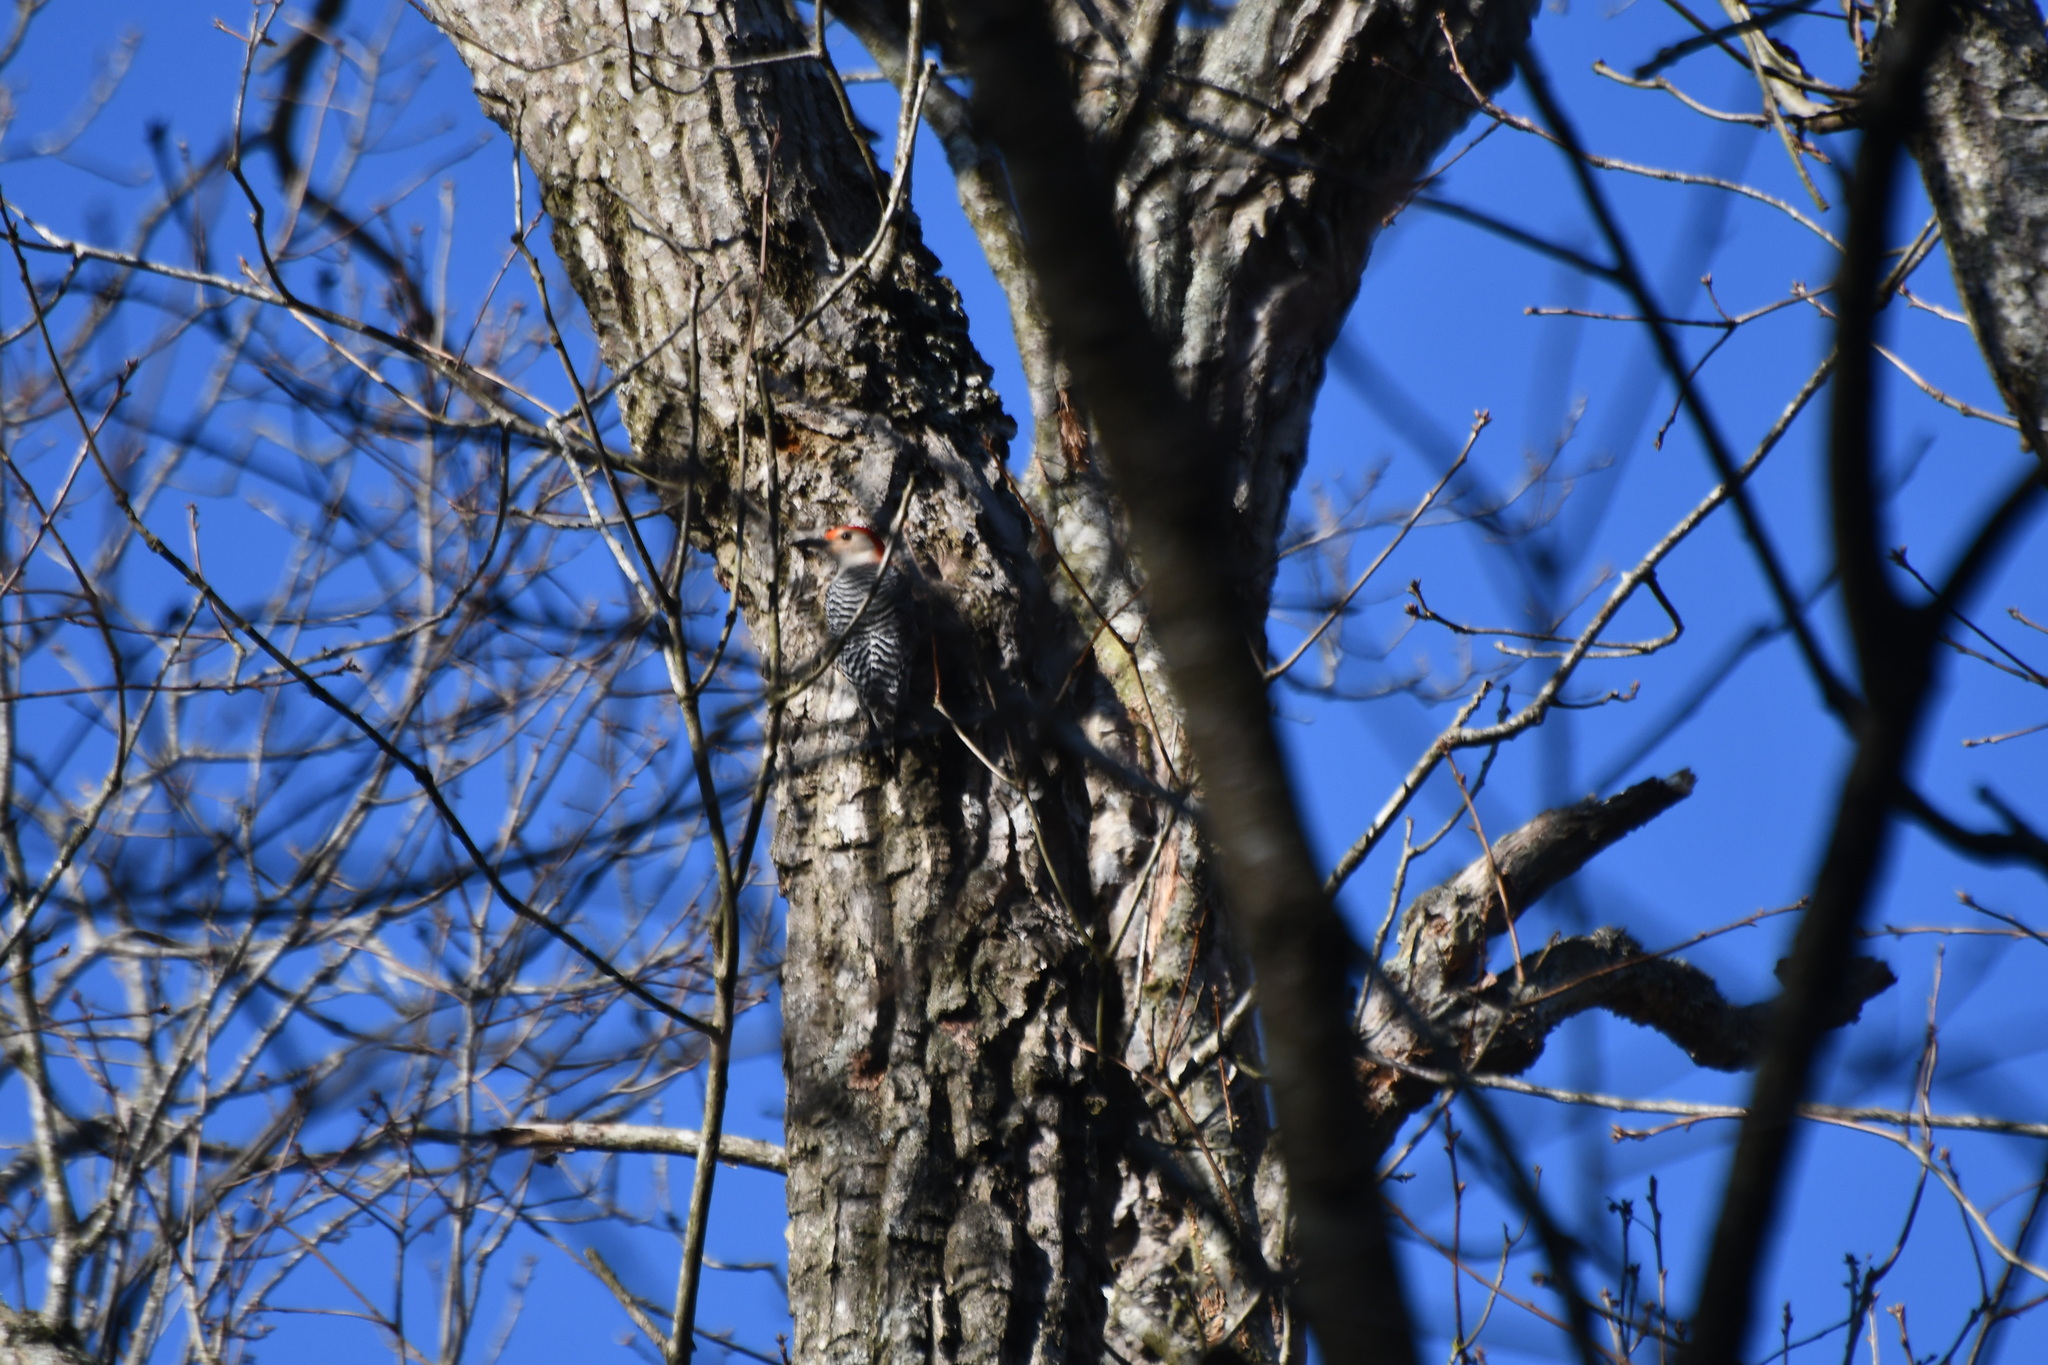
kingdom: Animalia
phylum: Chordata
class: Aves
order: Piciformes
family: Picidae
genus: Melanerpes
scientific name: Melanerpes carolinus
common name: Red-bellied woodpecker
